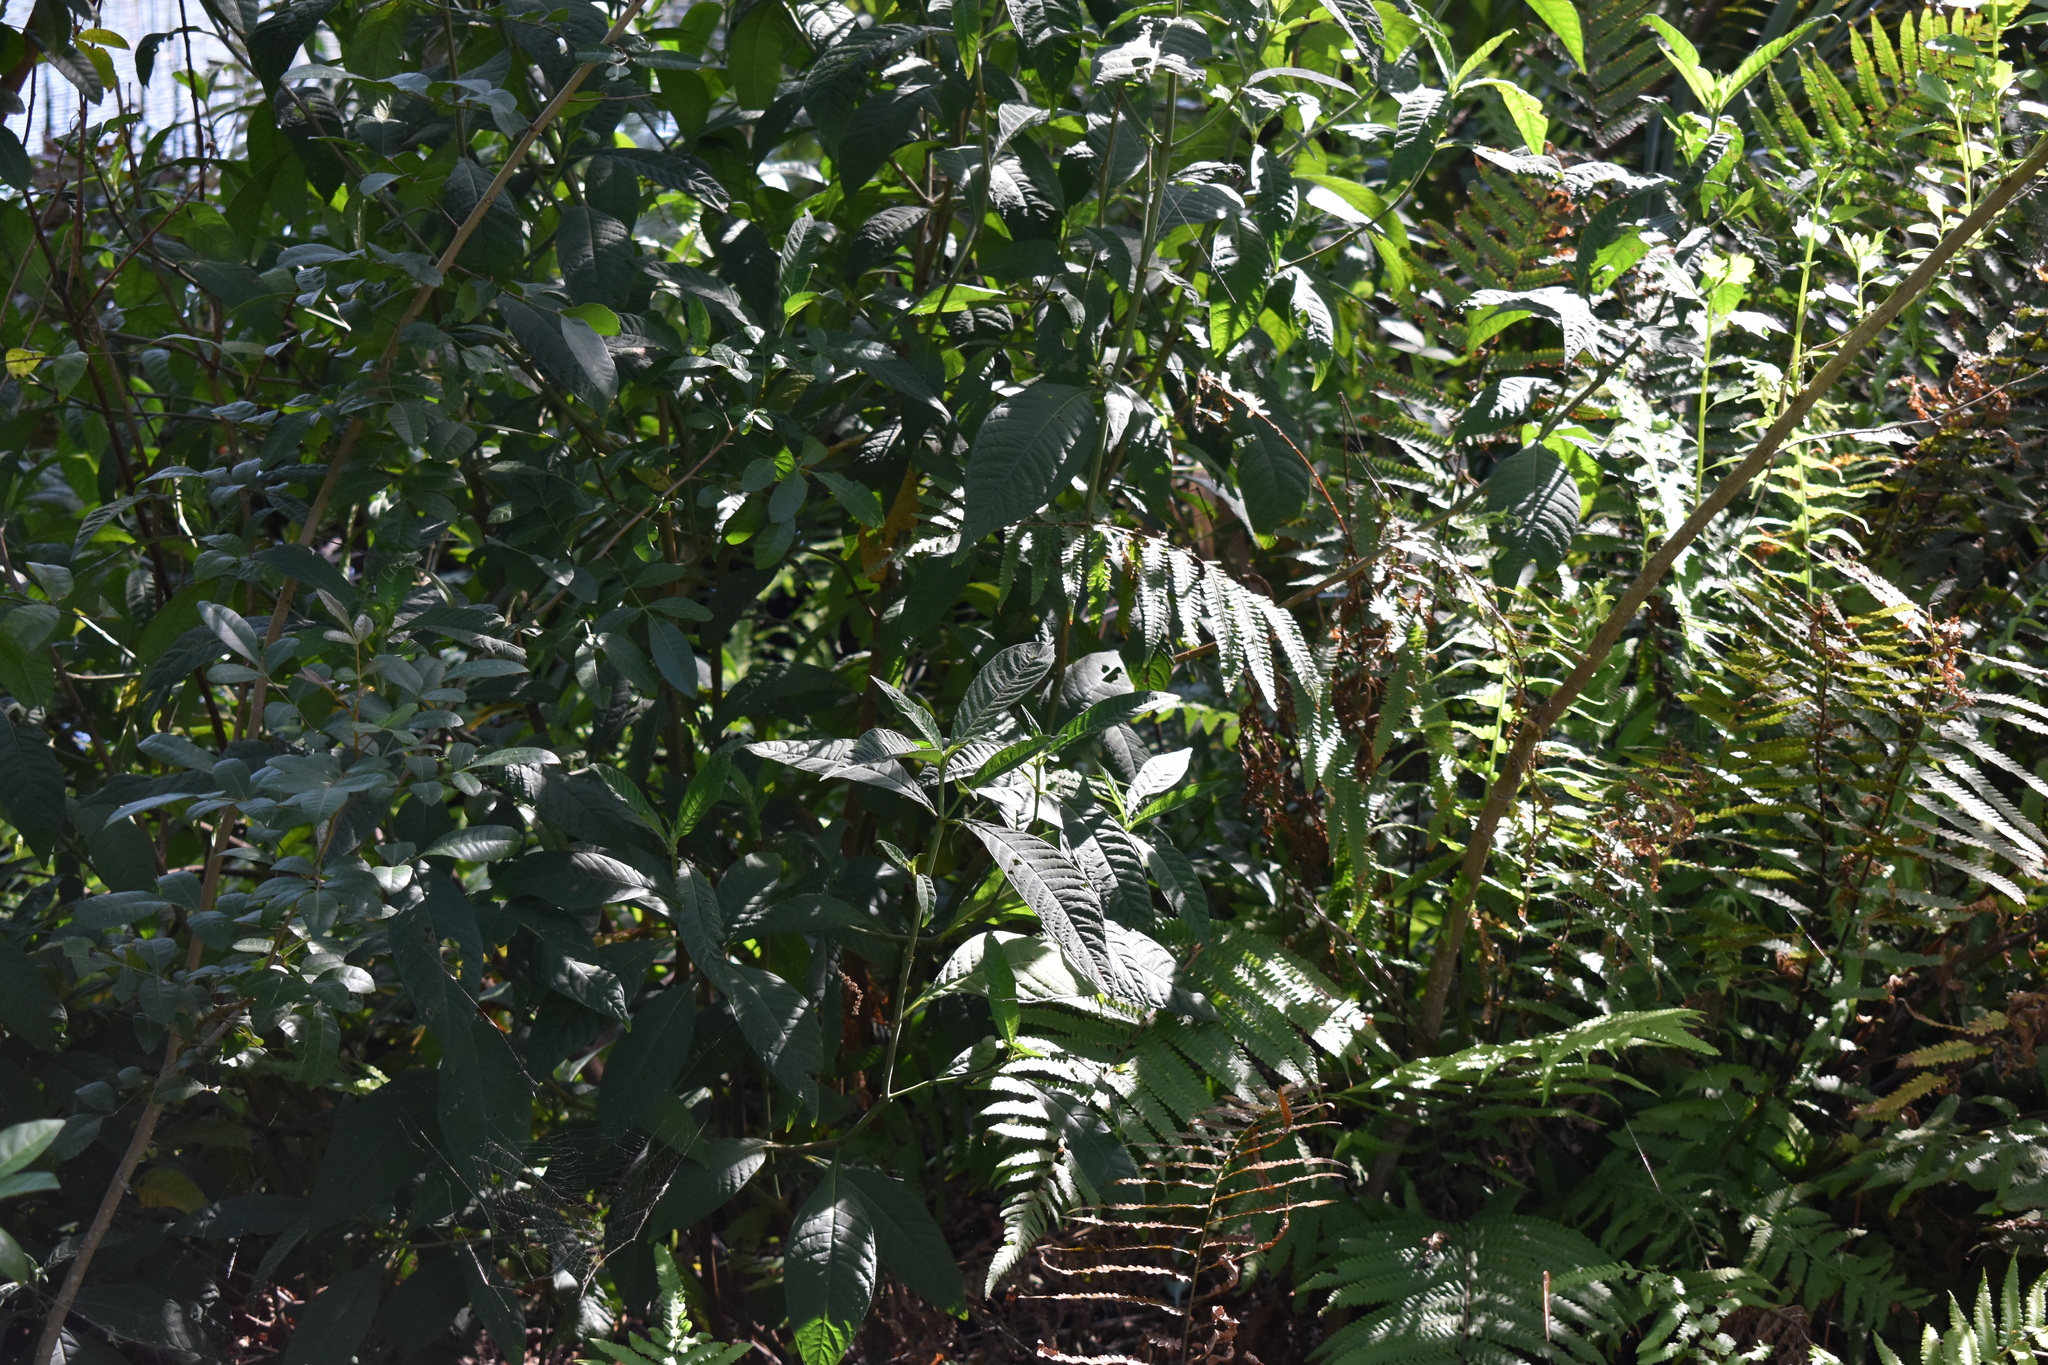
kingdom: Plantae
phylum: Tracheophyta
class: Magnoliopsida
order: Gentianales
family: Rubiaceae
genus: Psychotria
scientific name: Psychotria tenuifolia
